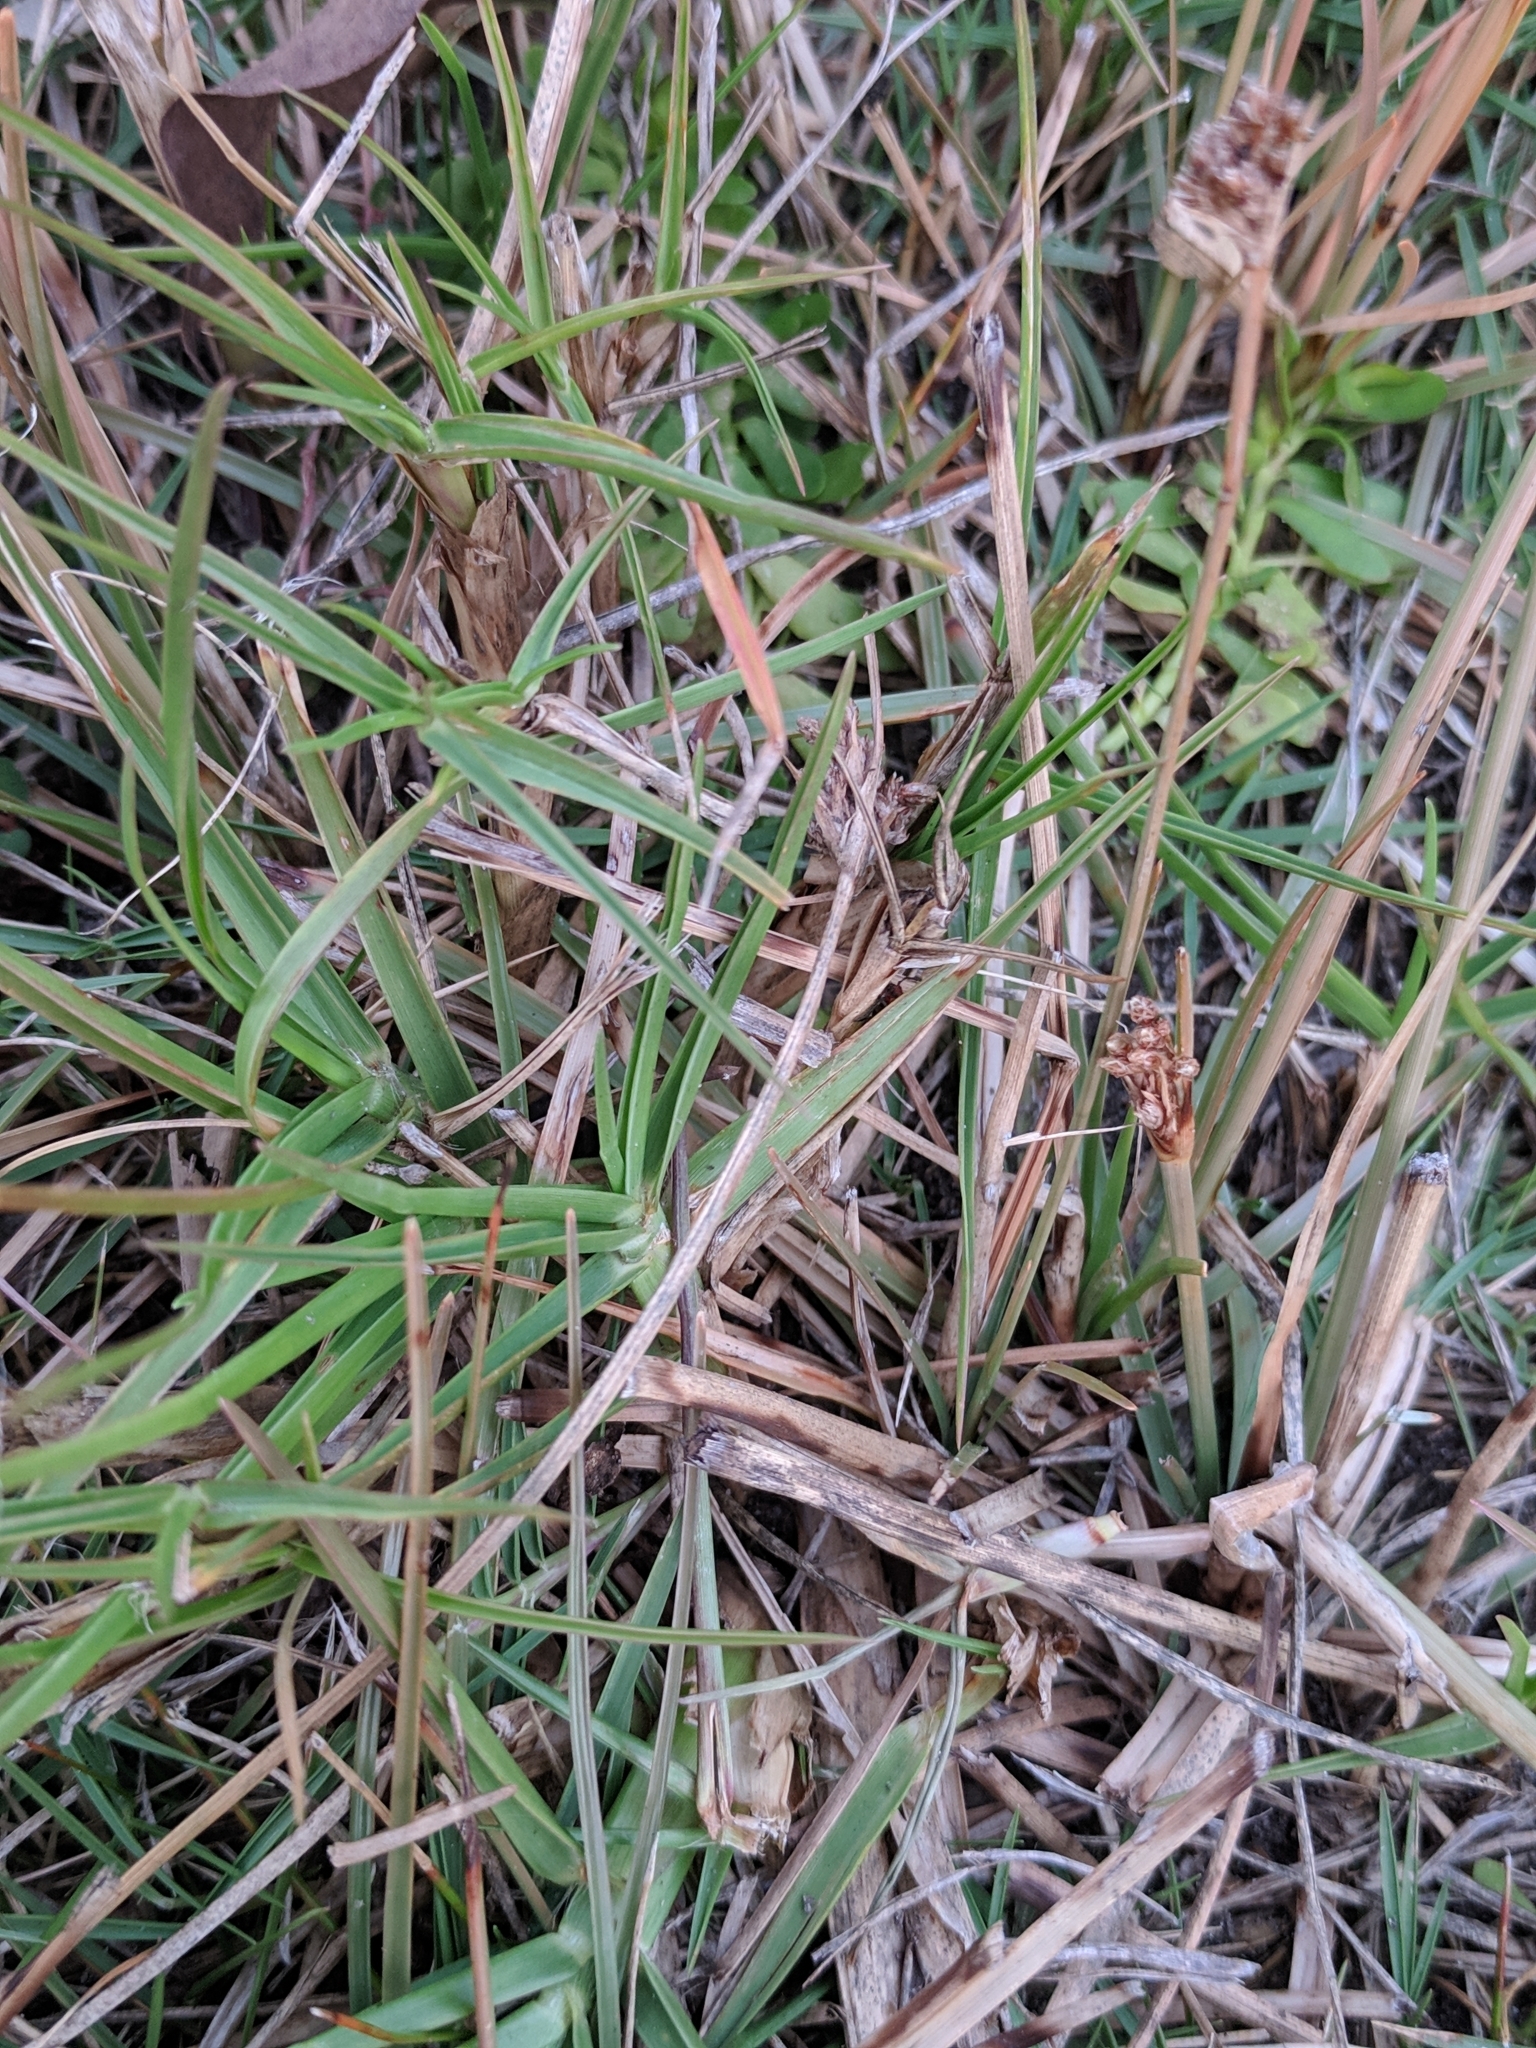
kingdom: Plantae
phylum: Tracheophyta
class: Liliopsida
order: Poales
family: Cyperaceae
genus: Fimbristylis
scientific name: Fimbristylis cymosa
